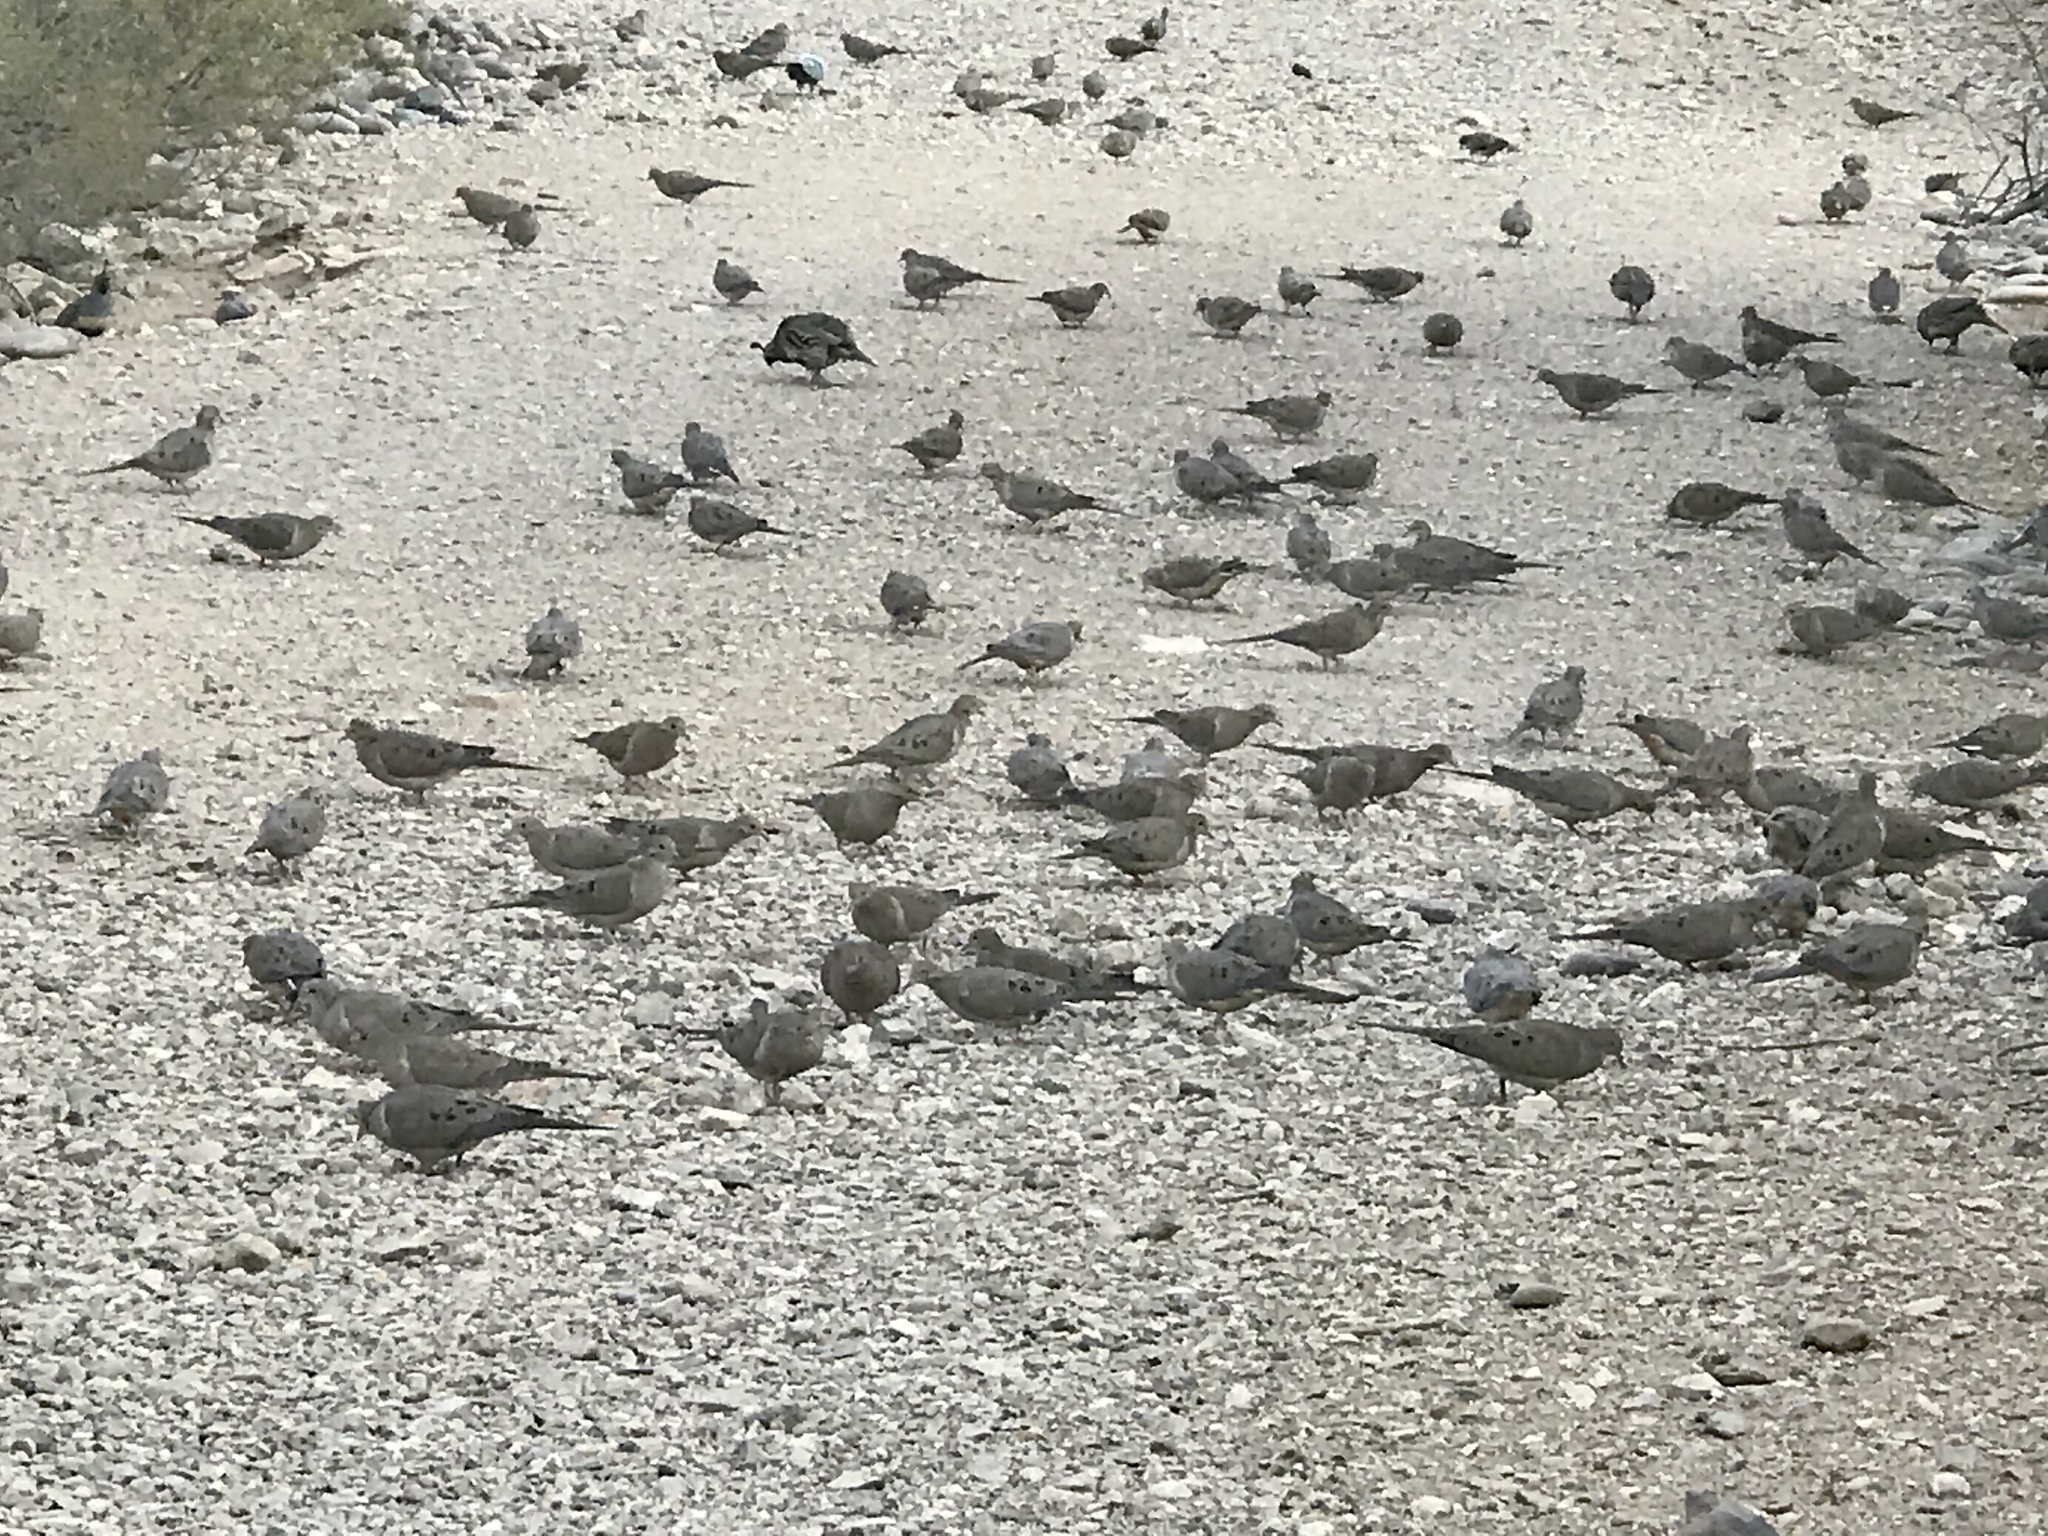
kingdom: Animalia
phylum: Chordata
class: Aves
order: Columbiformes
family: Columbidae
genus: Zenaida
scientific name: Zenaida macroura
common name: Mourning dove
